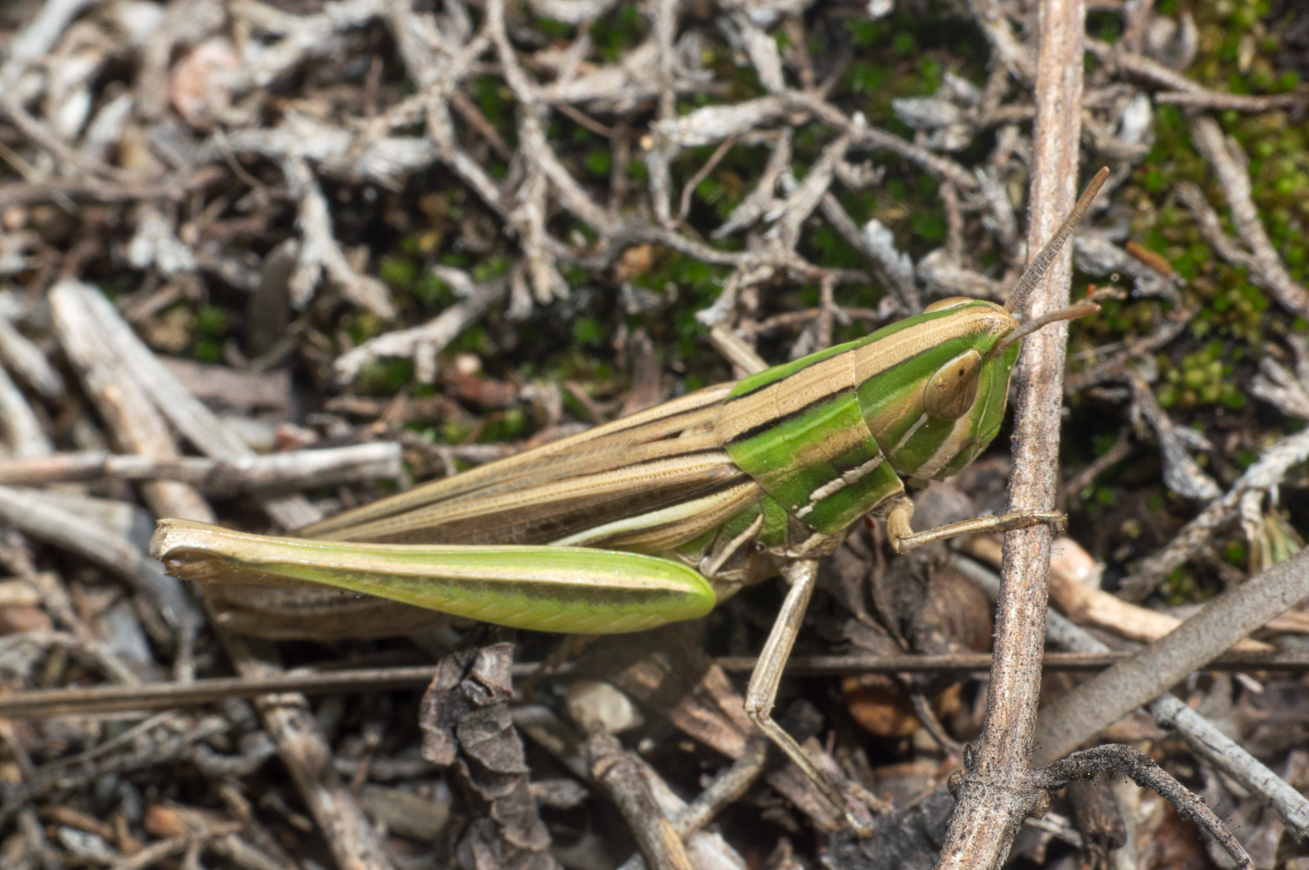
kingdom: Animalia
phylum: Arthropoda
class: Insecta
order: Orthoptera
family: Acrididae
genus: Sinipta
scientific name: Sinipta dalmani
